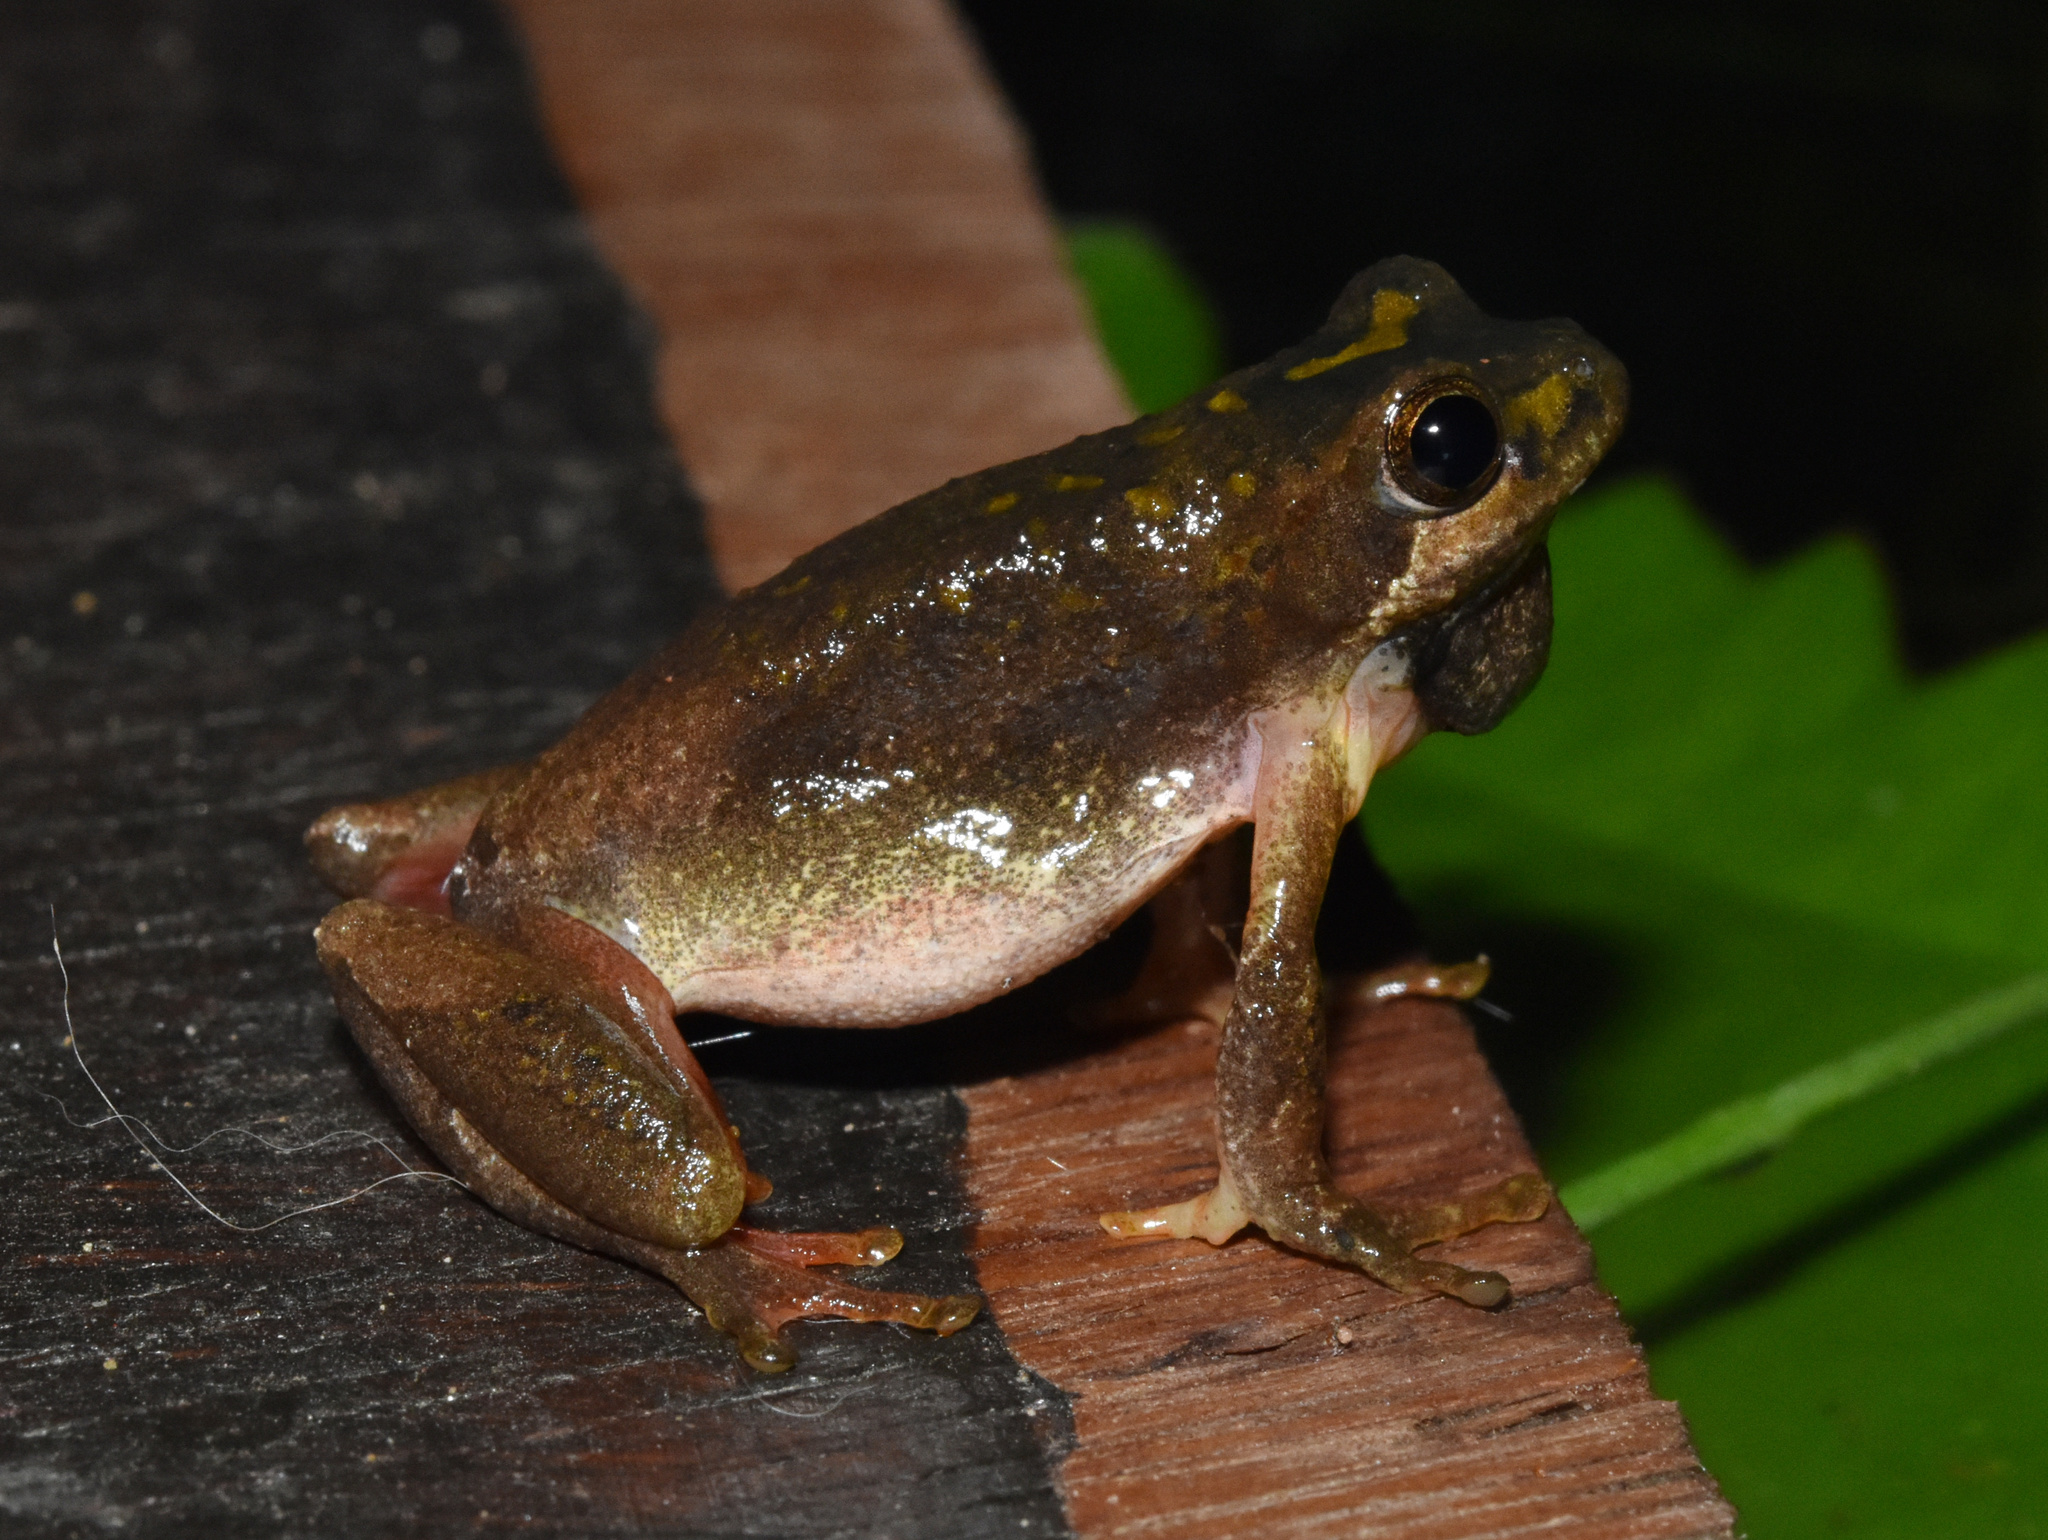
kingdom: Animalia
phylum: Chordata
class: Amphibia
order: Anura
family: Hyperoliidae
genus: Hyperolius
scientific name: Hyperolius marmoratus
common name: Painted reed frog
